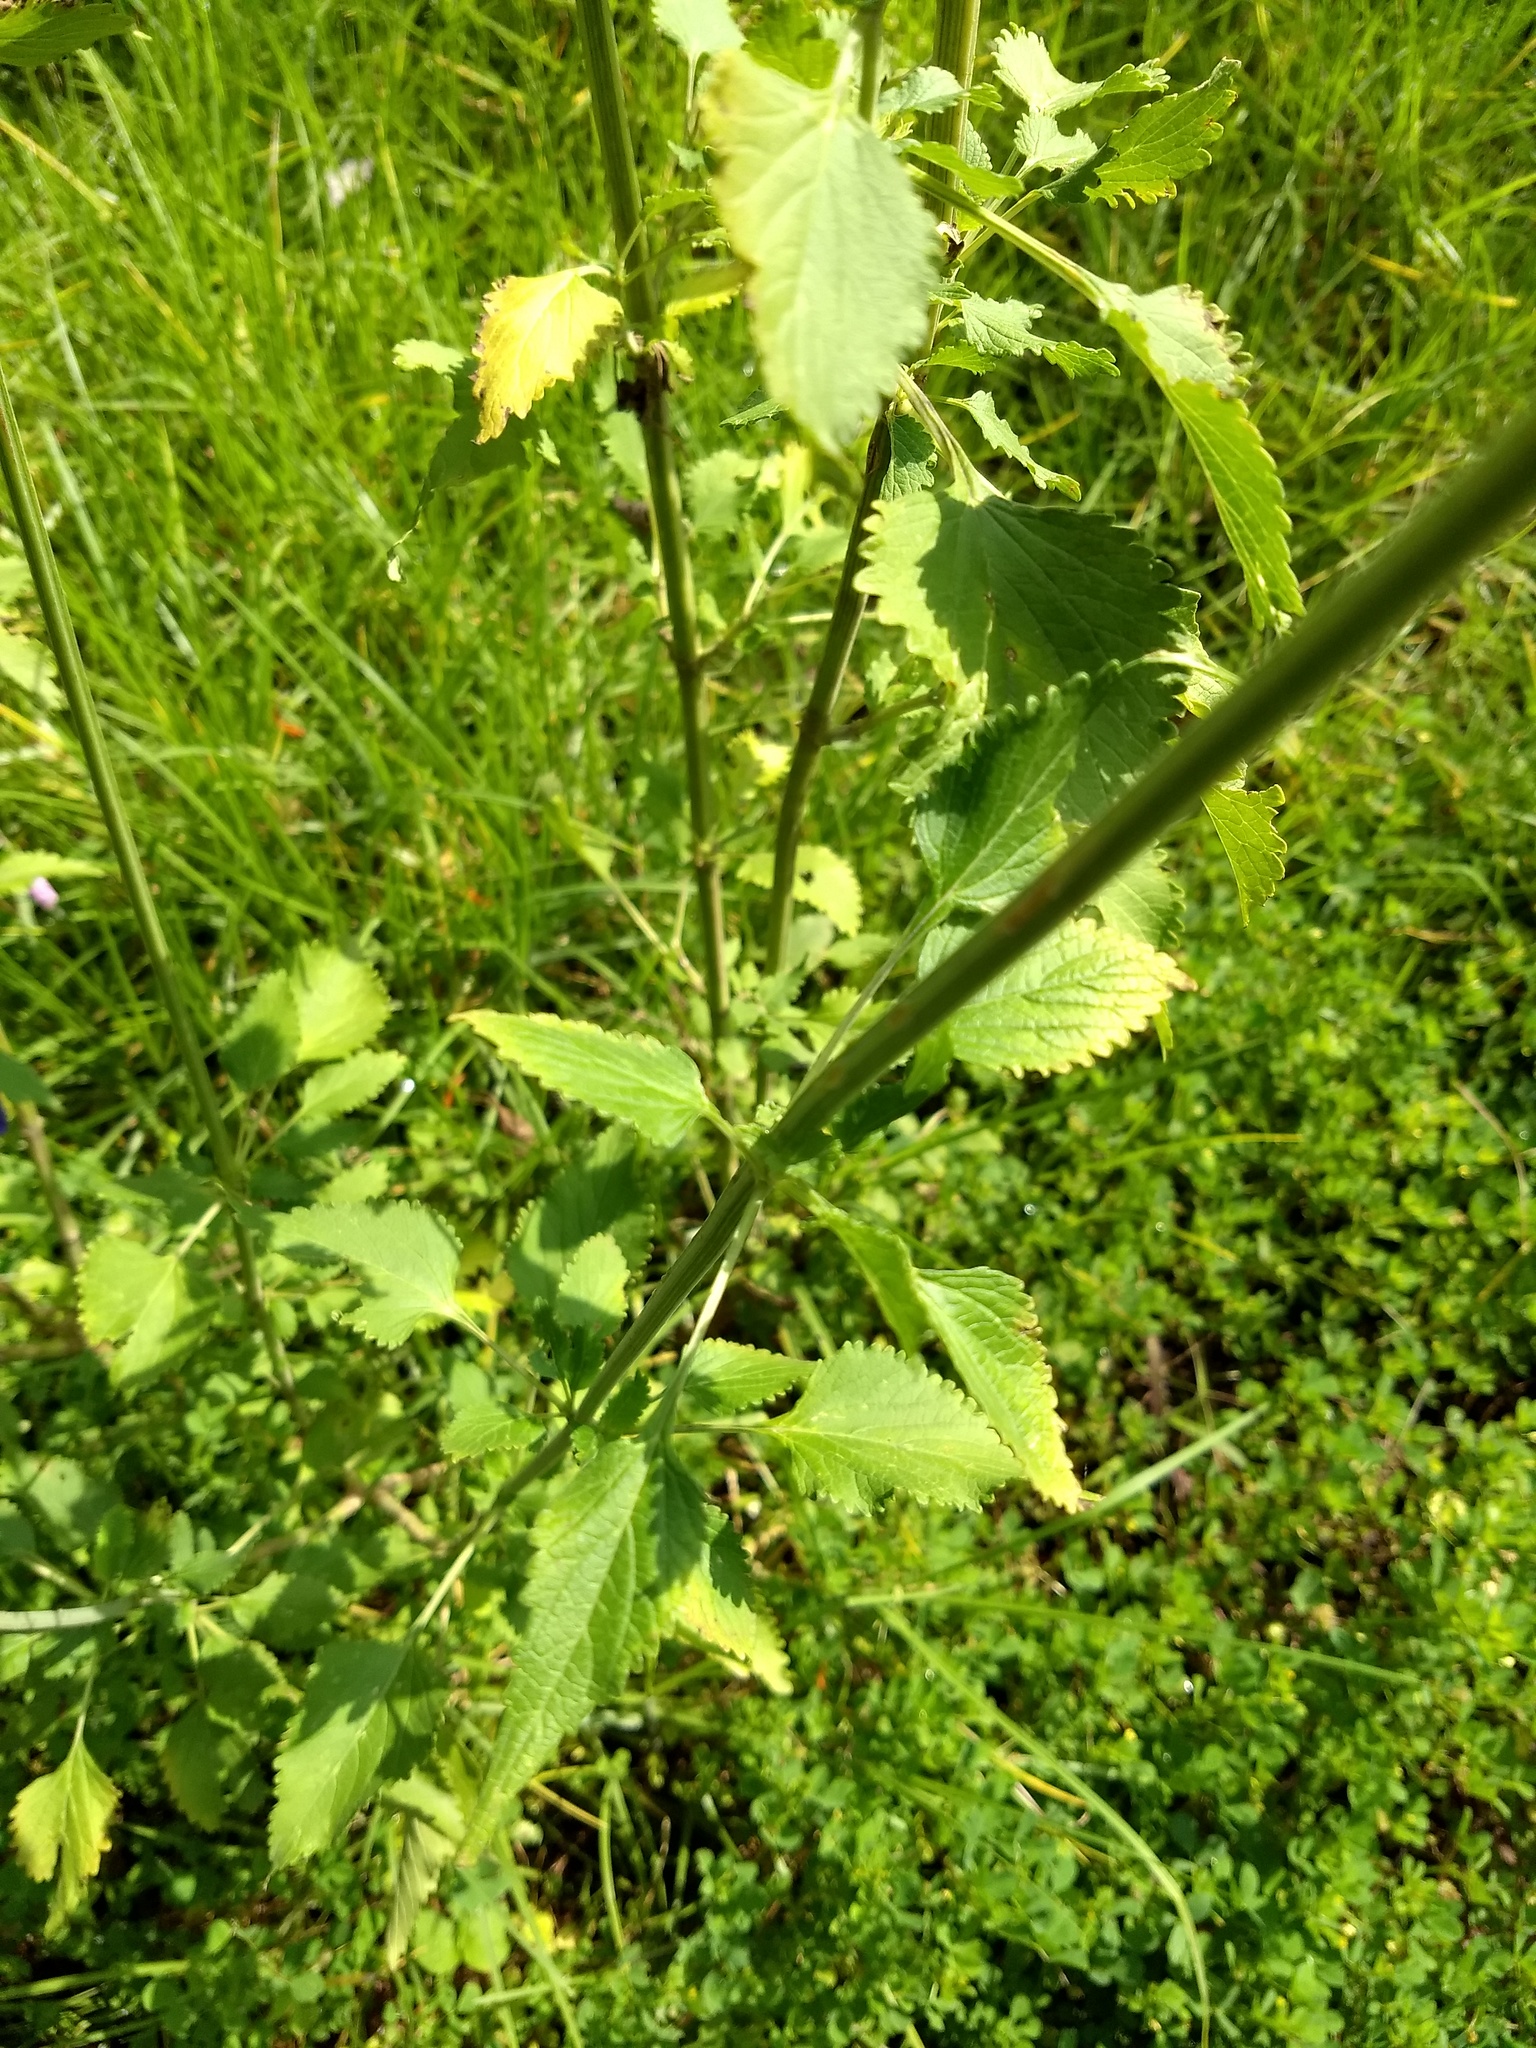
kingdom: Plantae
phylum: Tracheophyta
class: Magnoliopsida
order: Lamiales
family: Lamiaceae
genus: Leonotis
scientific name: Leonotis nepetifolia
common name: Christmas candlestick
